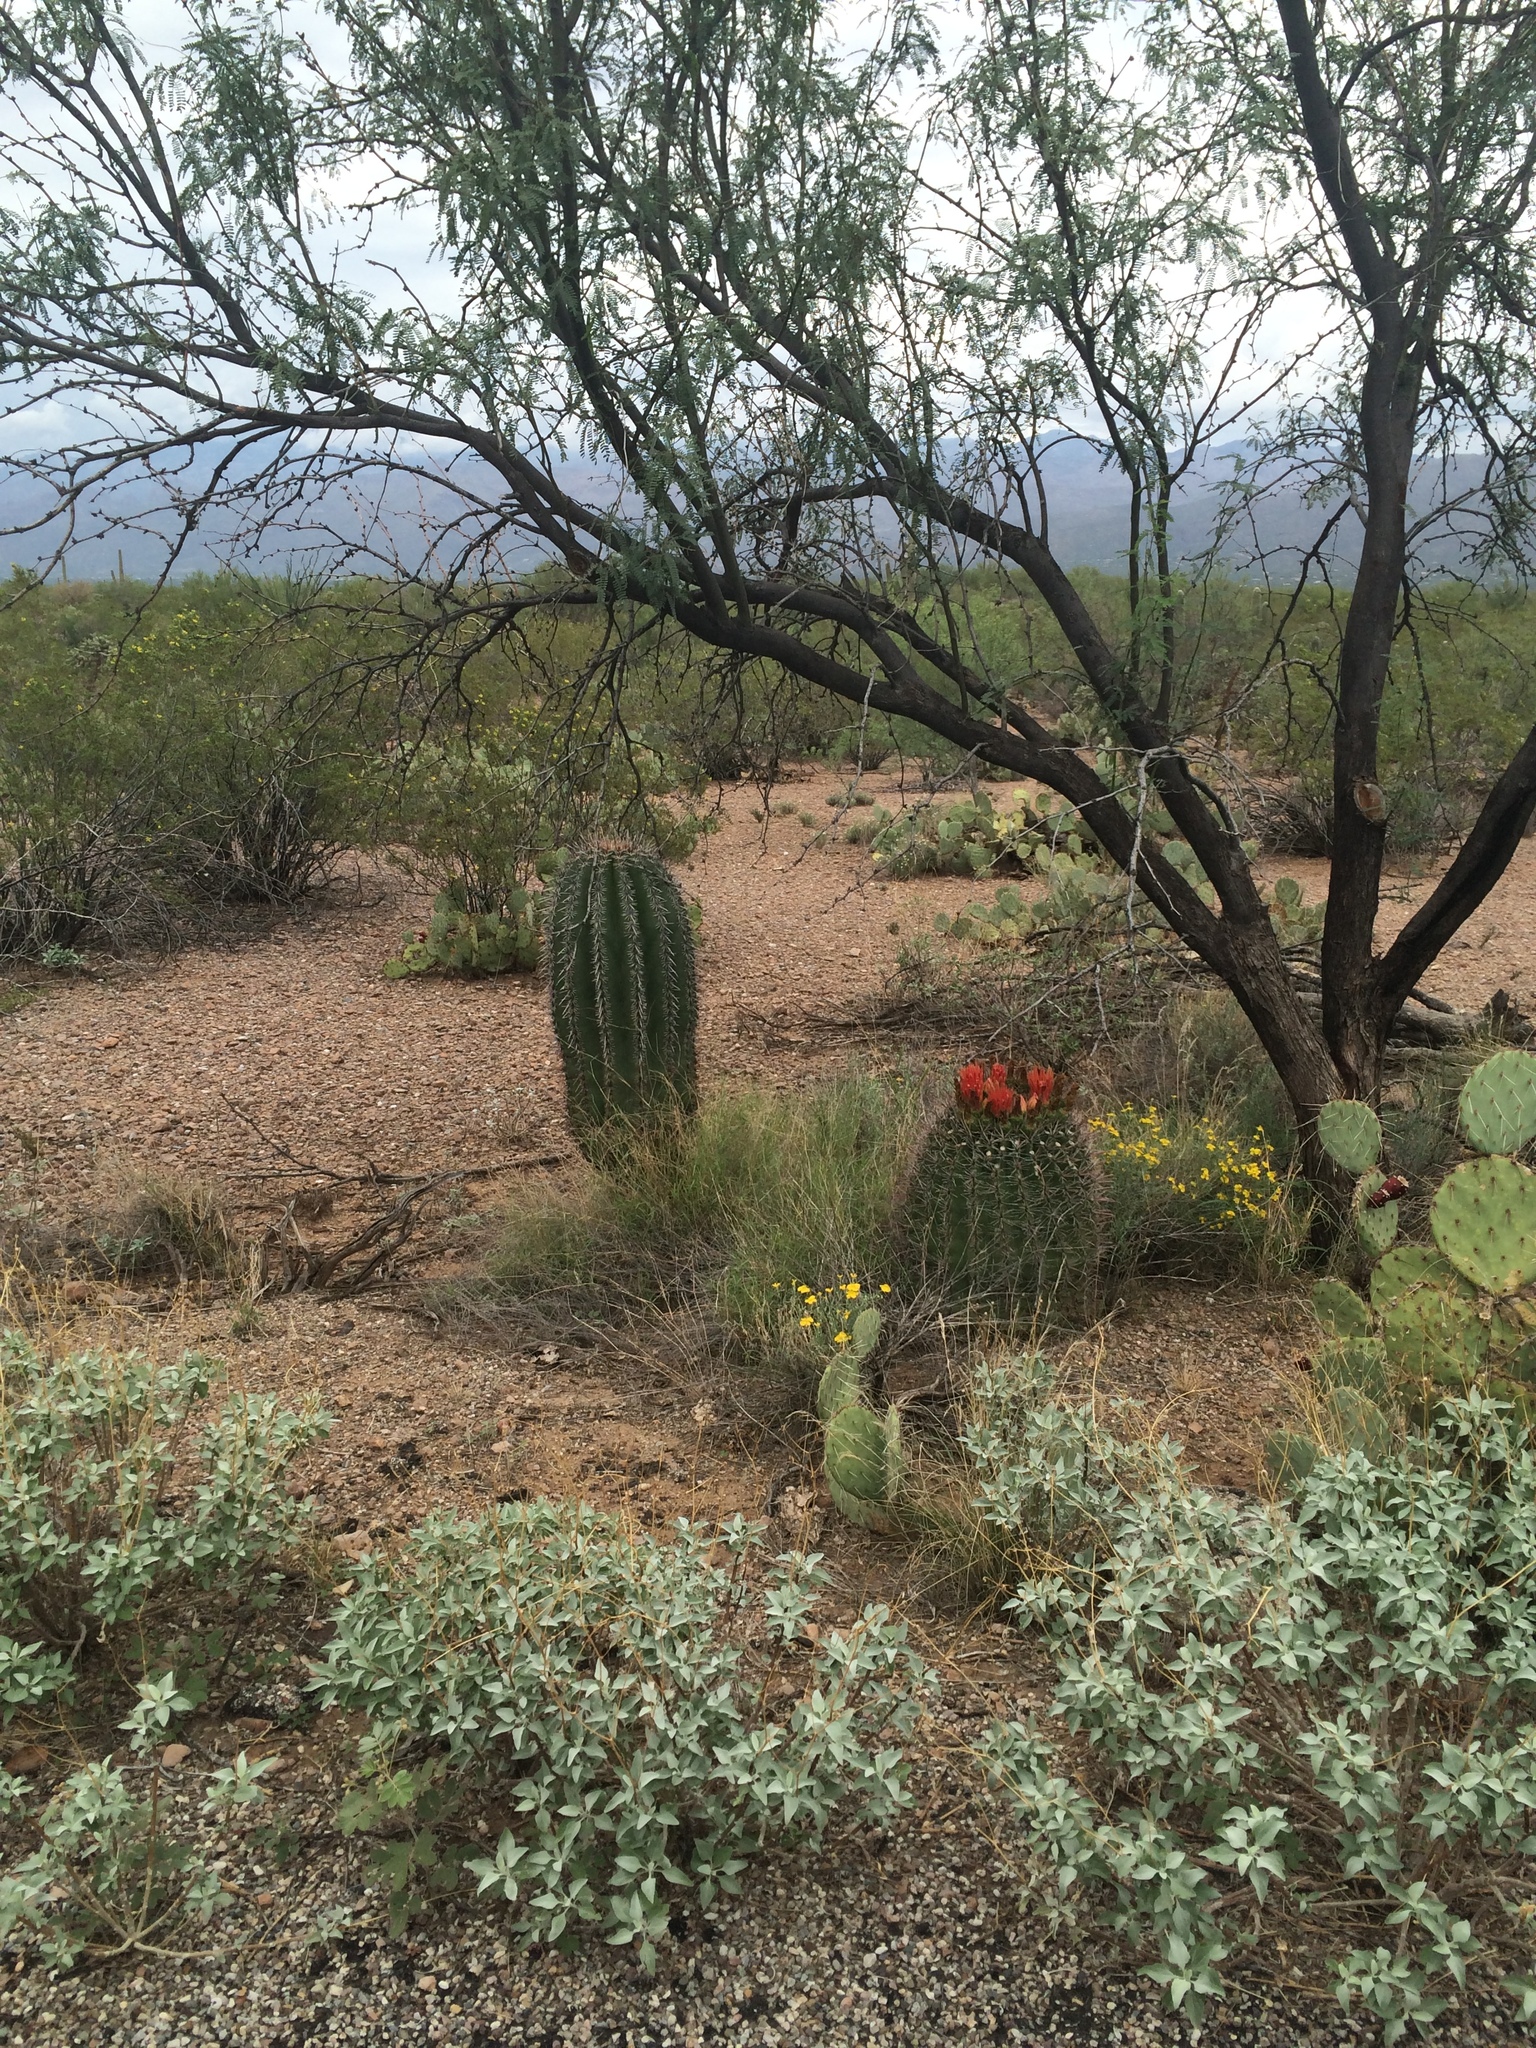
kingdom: Plantae
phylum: Tracheophyta
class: Magnoliopsida
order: Caryophyllales
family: Cactaceae
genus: Ferocactus
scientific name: Ferocactus wislizeni
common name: Candy barrel cactus
